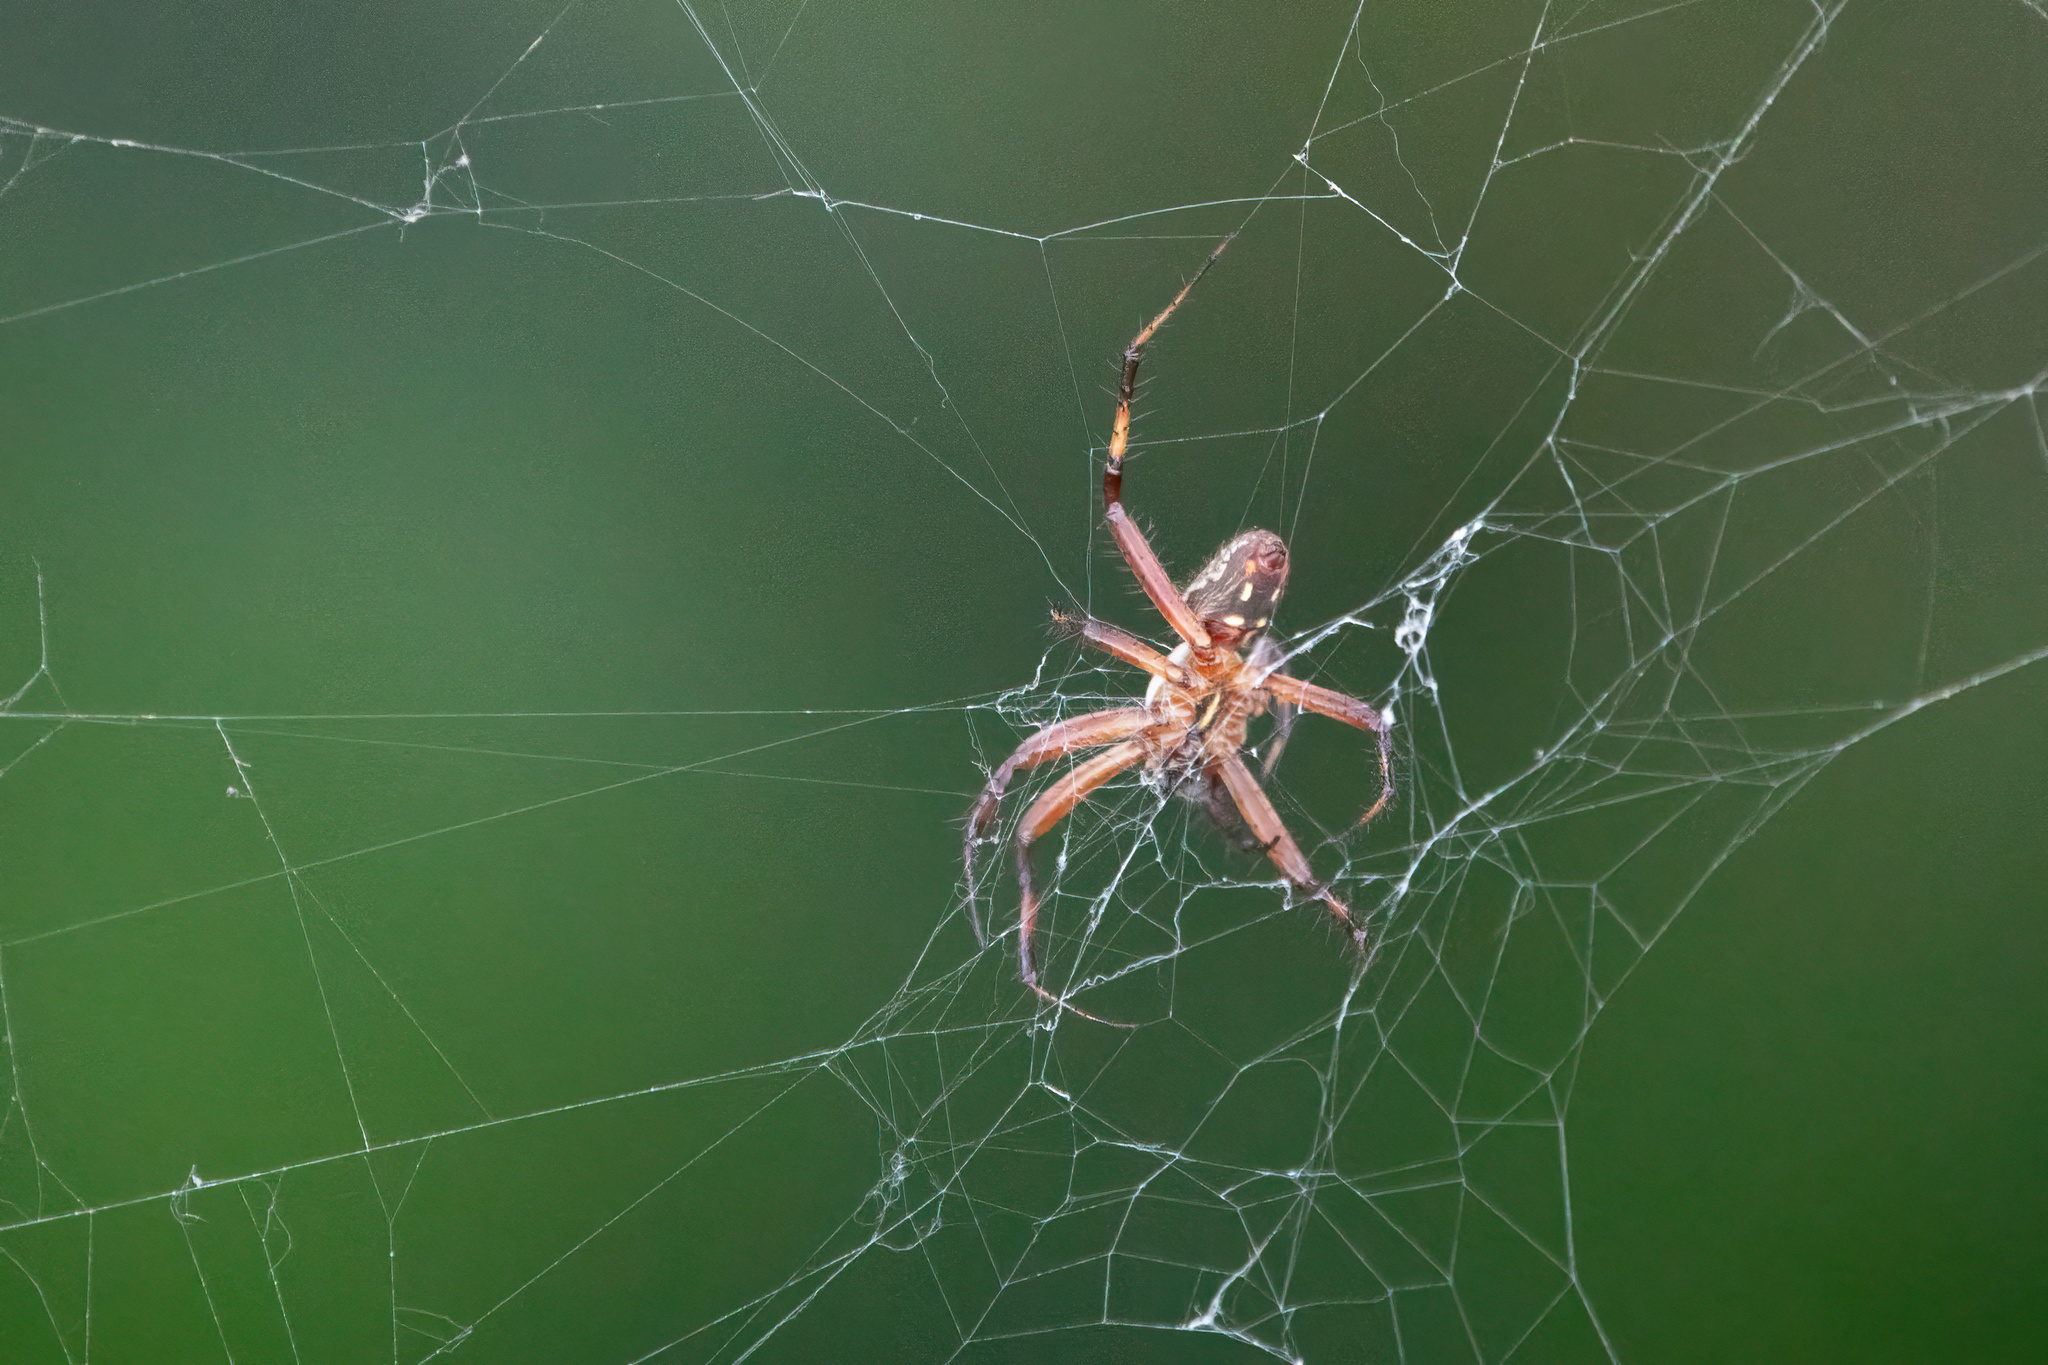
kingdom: Animalia
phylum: Arthropoda
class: Arachnida
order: Araneae
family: Araneidae
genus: Neoscona
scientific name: Neoscona oaxacensis
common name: Orb weavers
